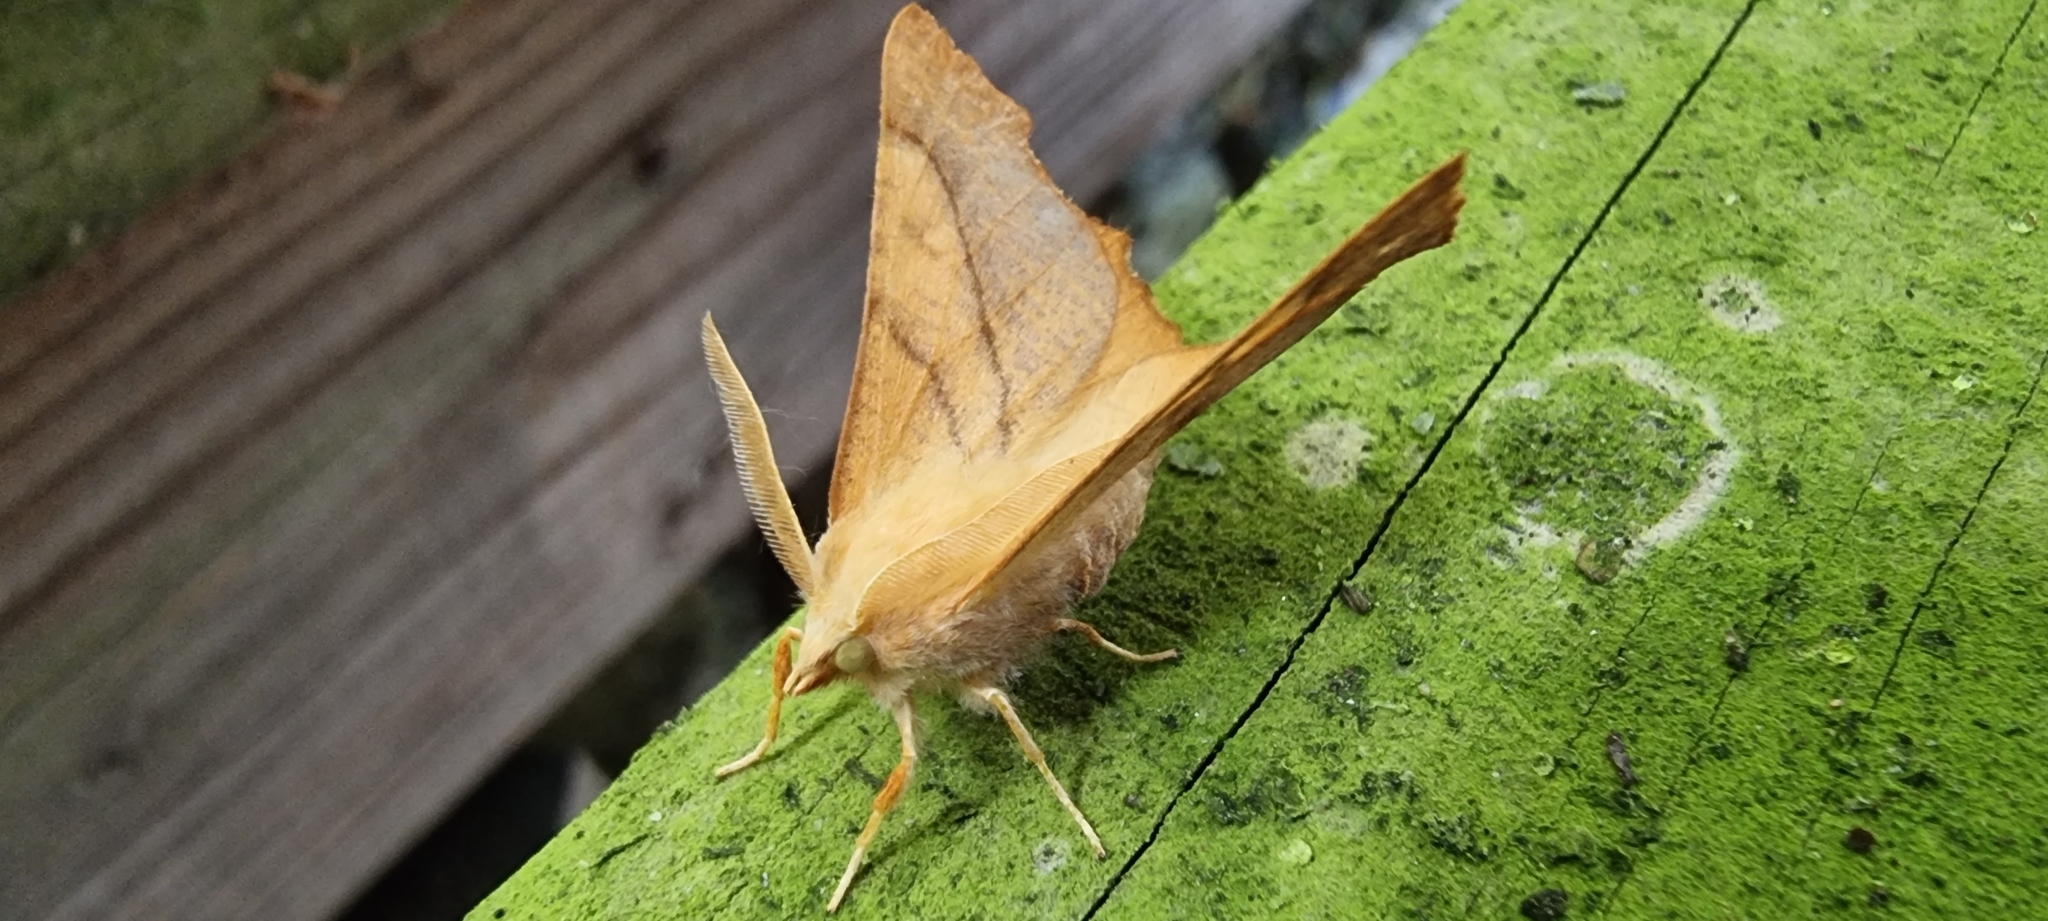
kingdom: Animalia
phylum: Arthropoda
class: Insecta
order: Lepidoptera
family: Geometridae
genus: Ennomos
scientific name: Ennomos fuscantaria
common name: Dusky thorn
